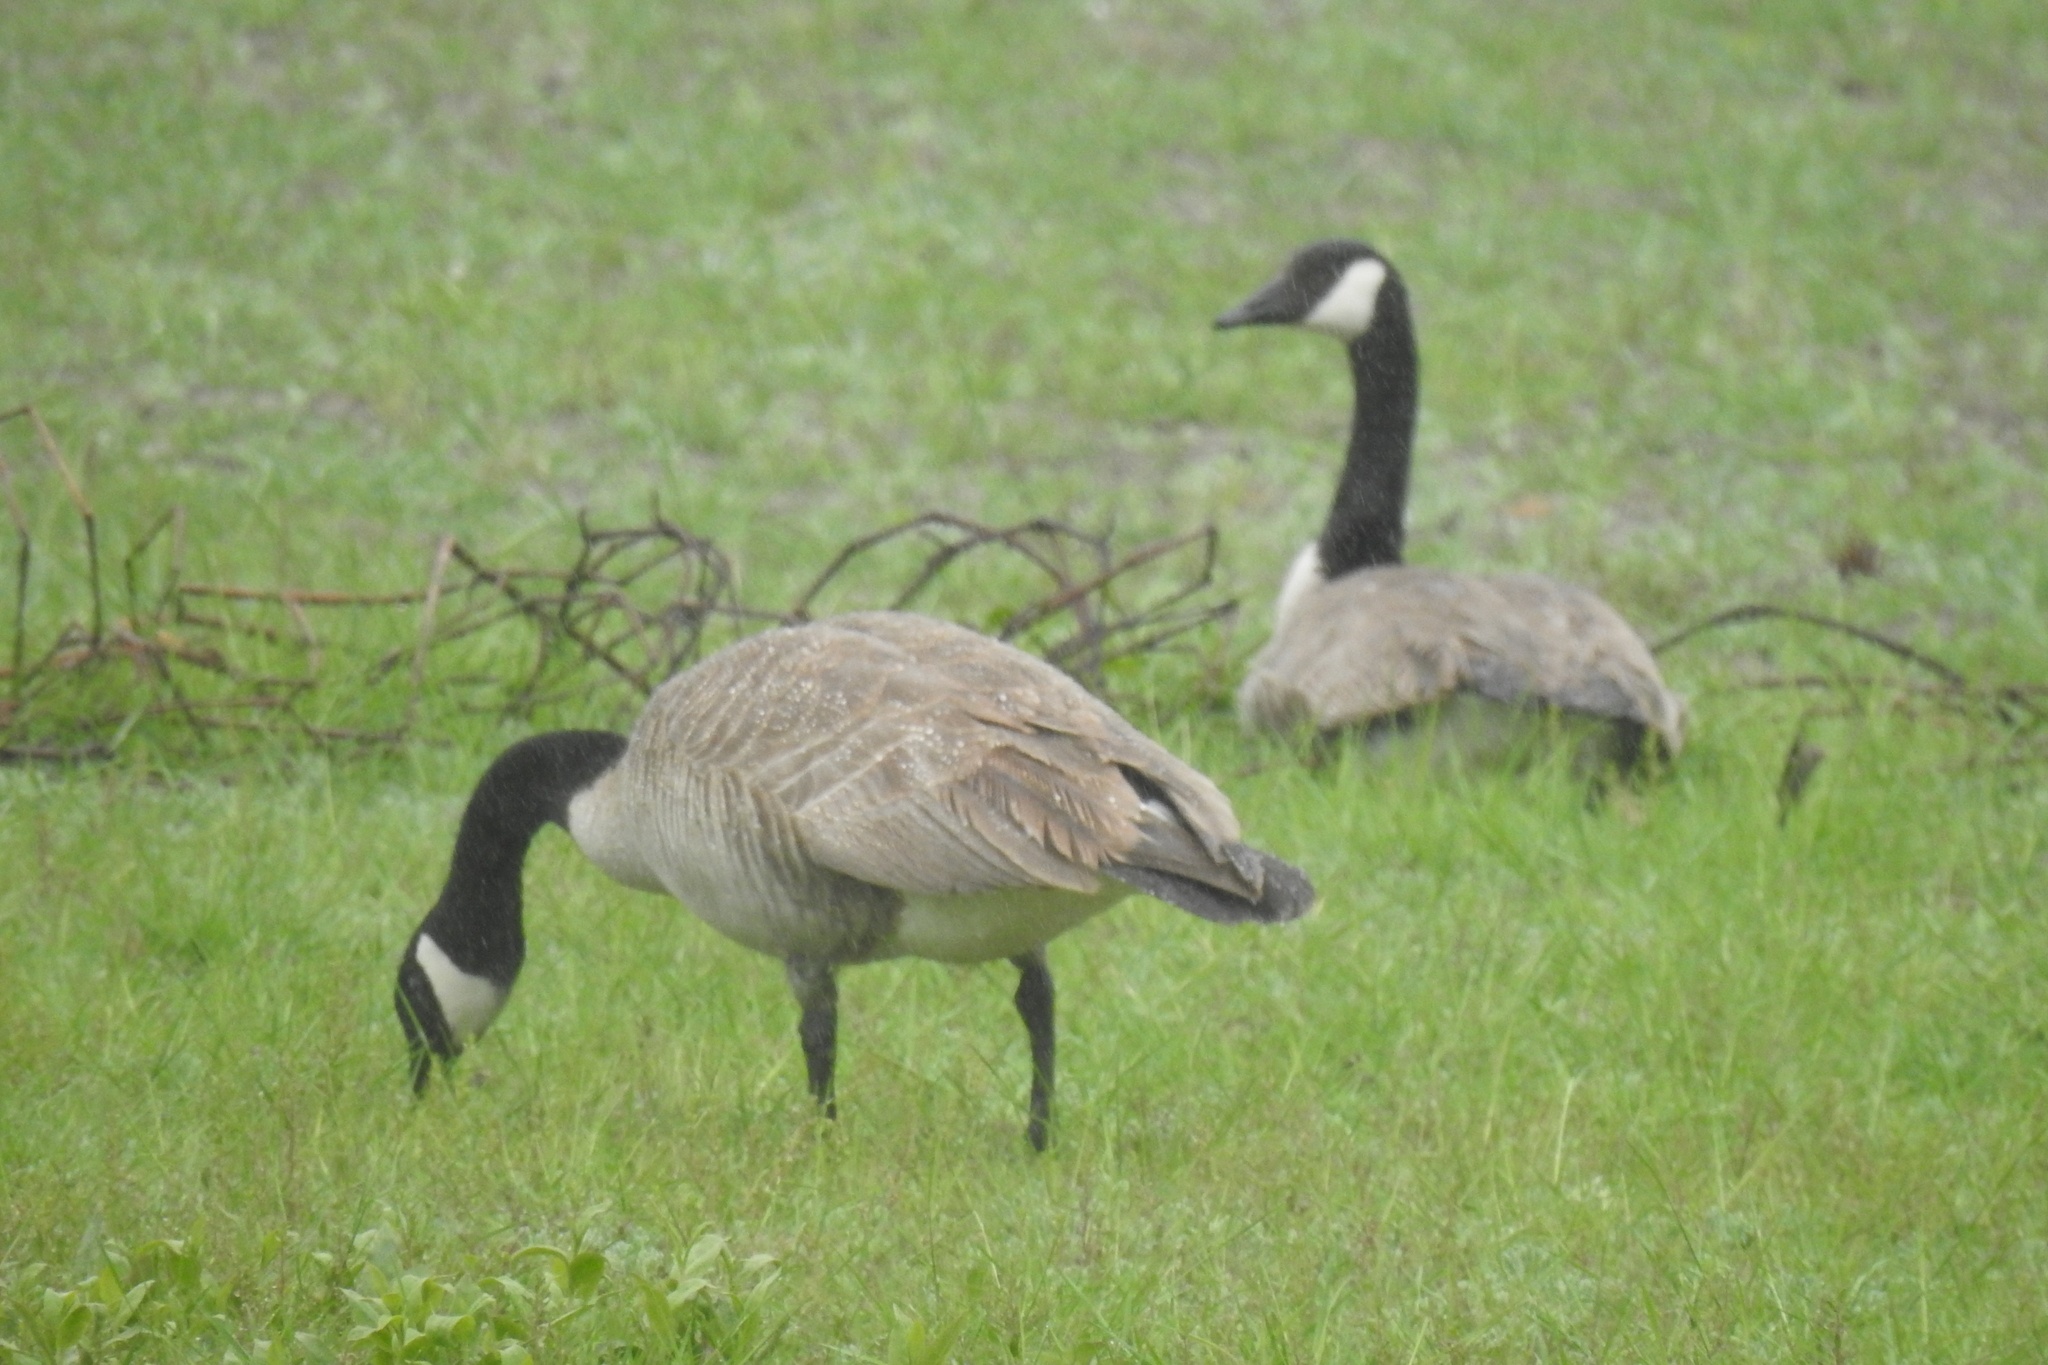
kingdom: Animalia
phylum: Chordata
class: Aves
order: Anseriformes
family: Anatidae
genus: Branta
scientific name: Branta canadensis
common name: Canada goose
